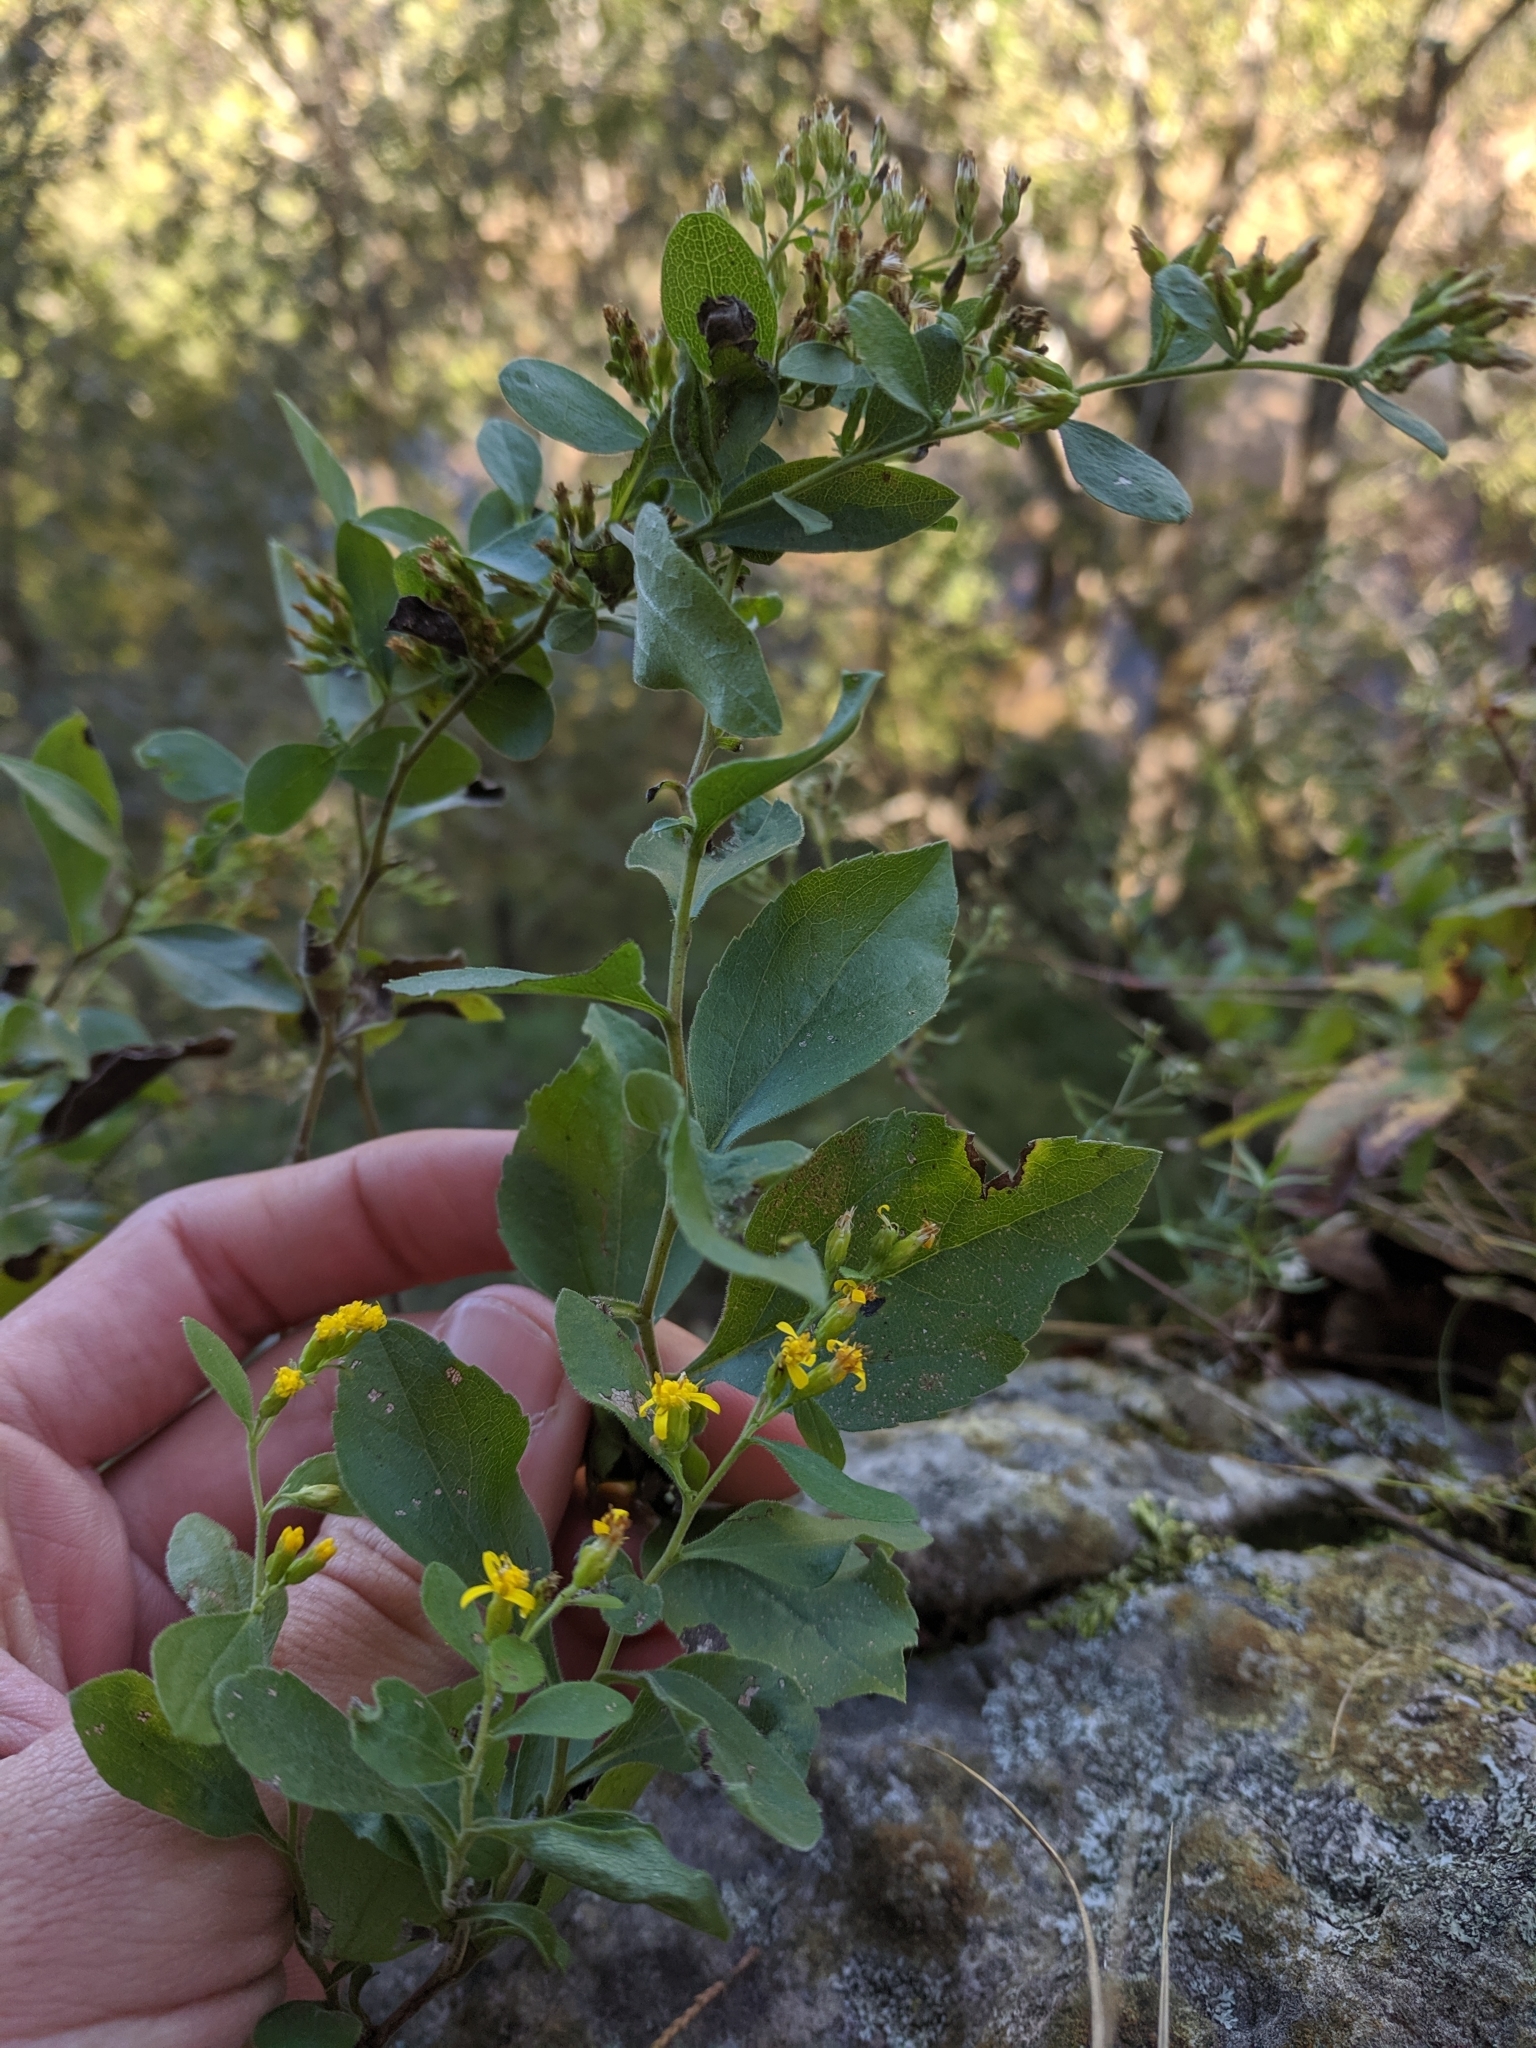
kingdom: Plantae
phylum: Tracheophyta
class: Magnoliopsida
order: Asterales
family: Asteraceae
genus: Solidago
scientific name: Solidago drummondii
